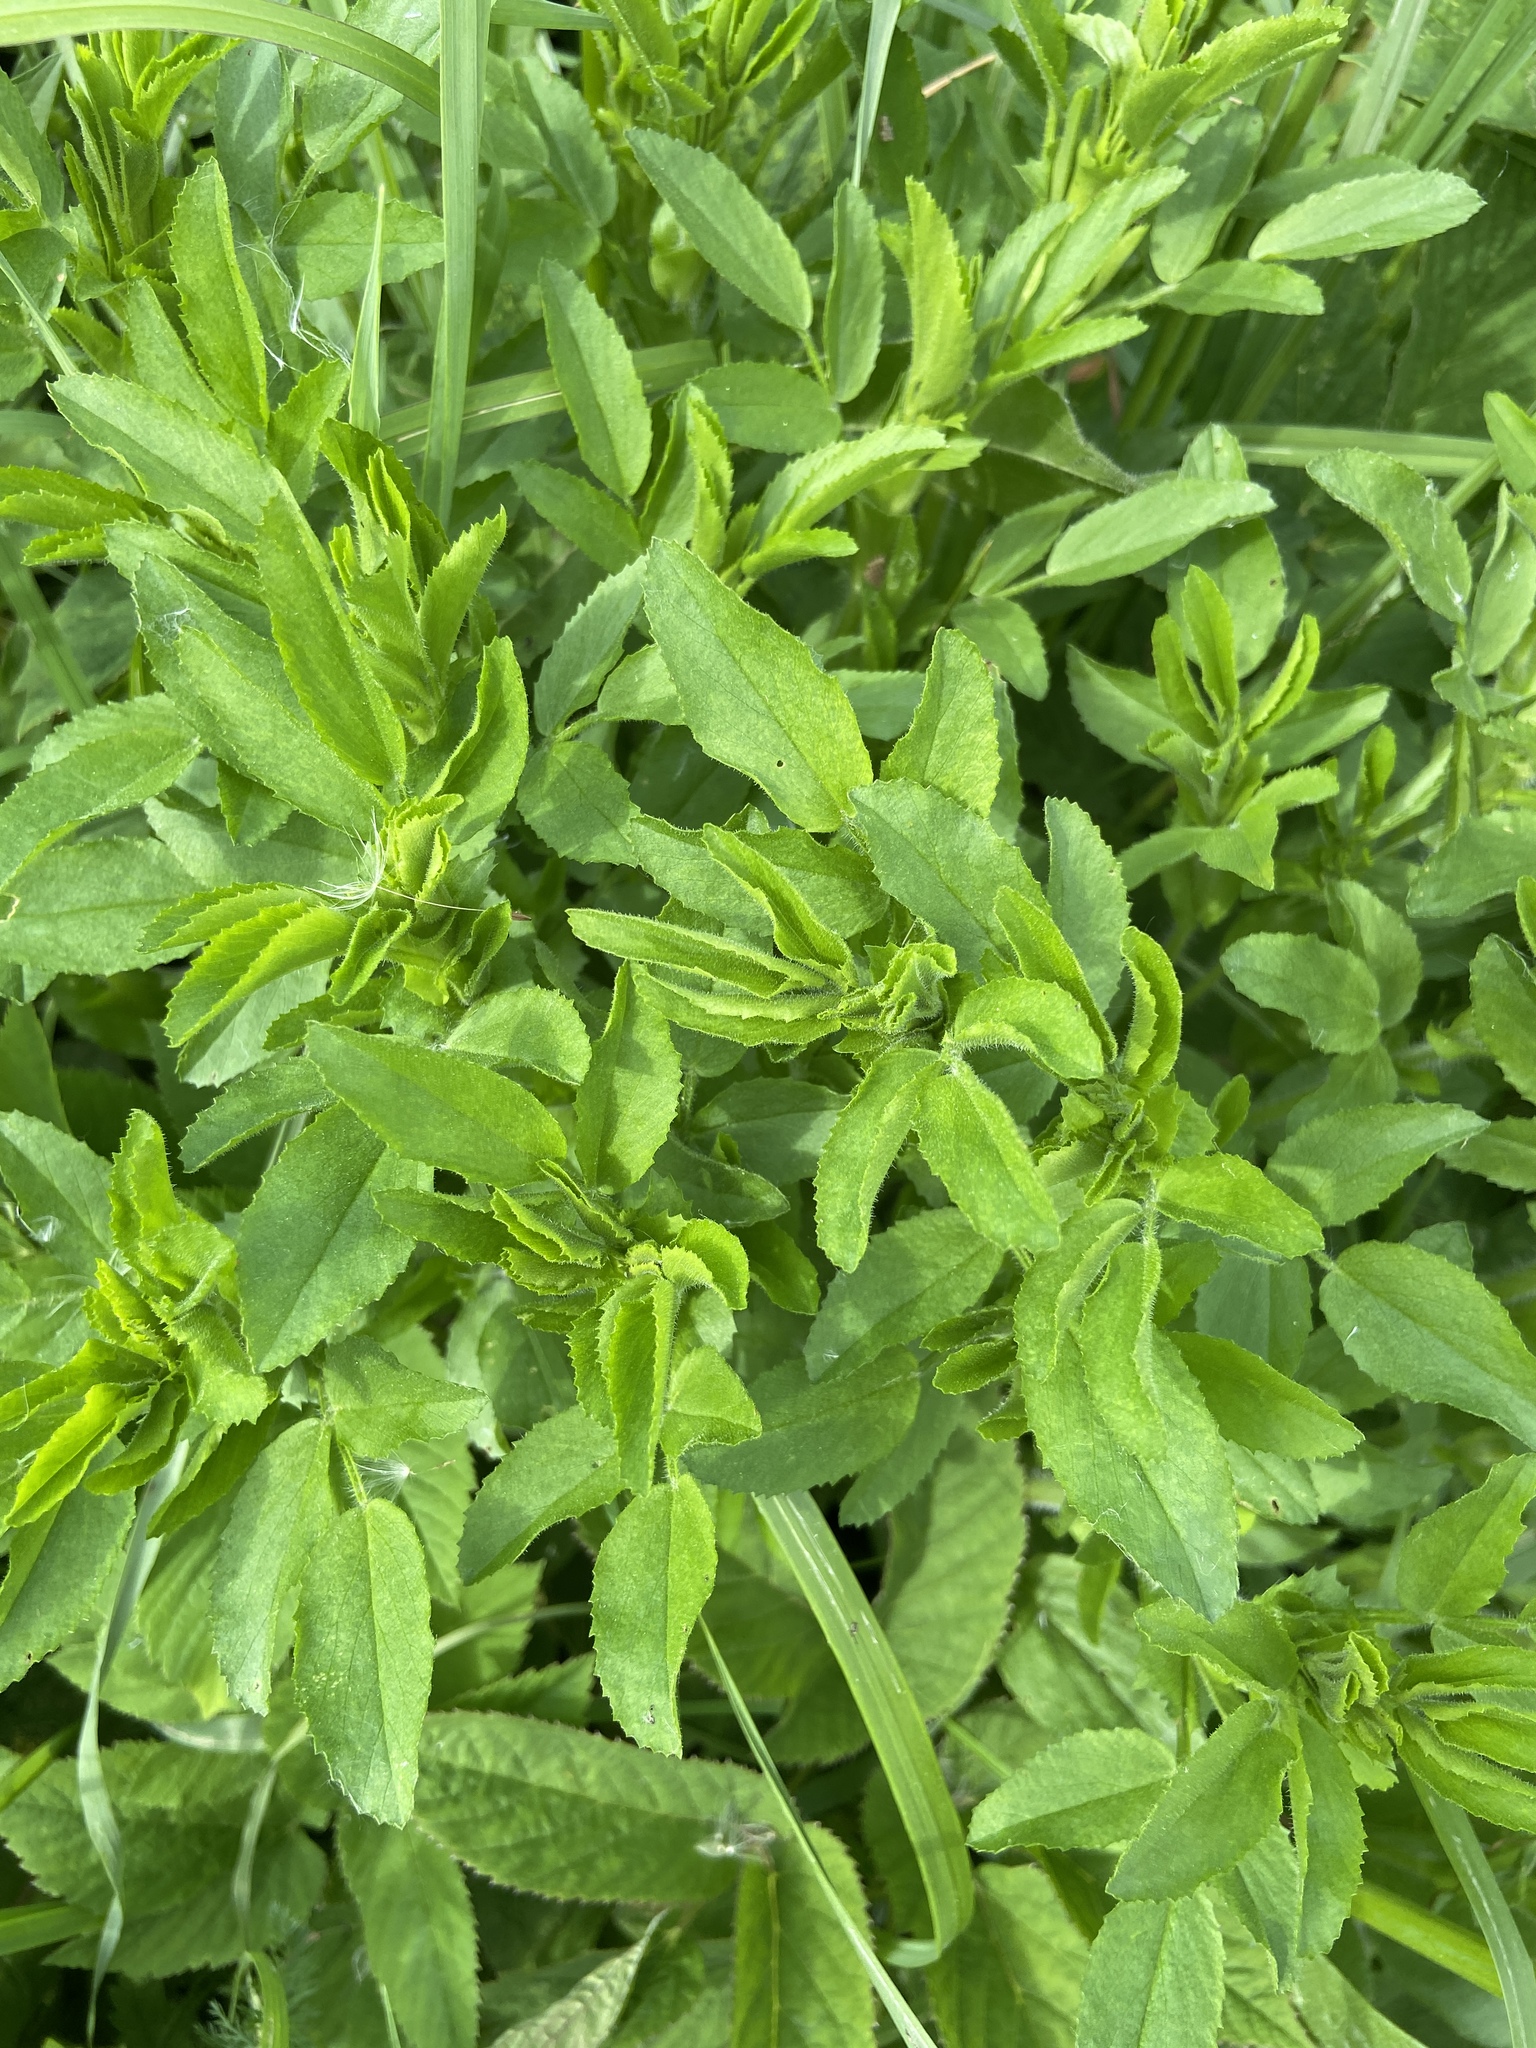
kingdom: Plantae
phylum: Tracheophyta
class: Magnoliopsida
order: Fabales
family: Fabaceae
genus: Ononis
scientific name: Ononis arvensis
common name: Field restharrow
